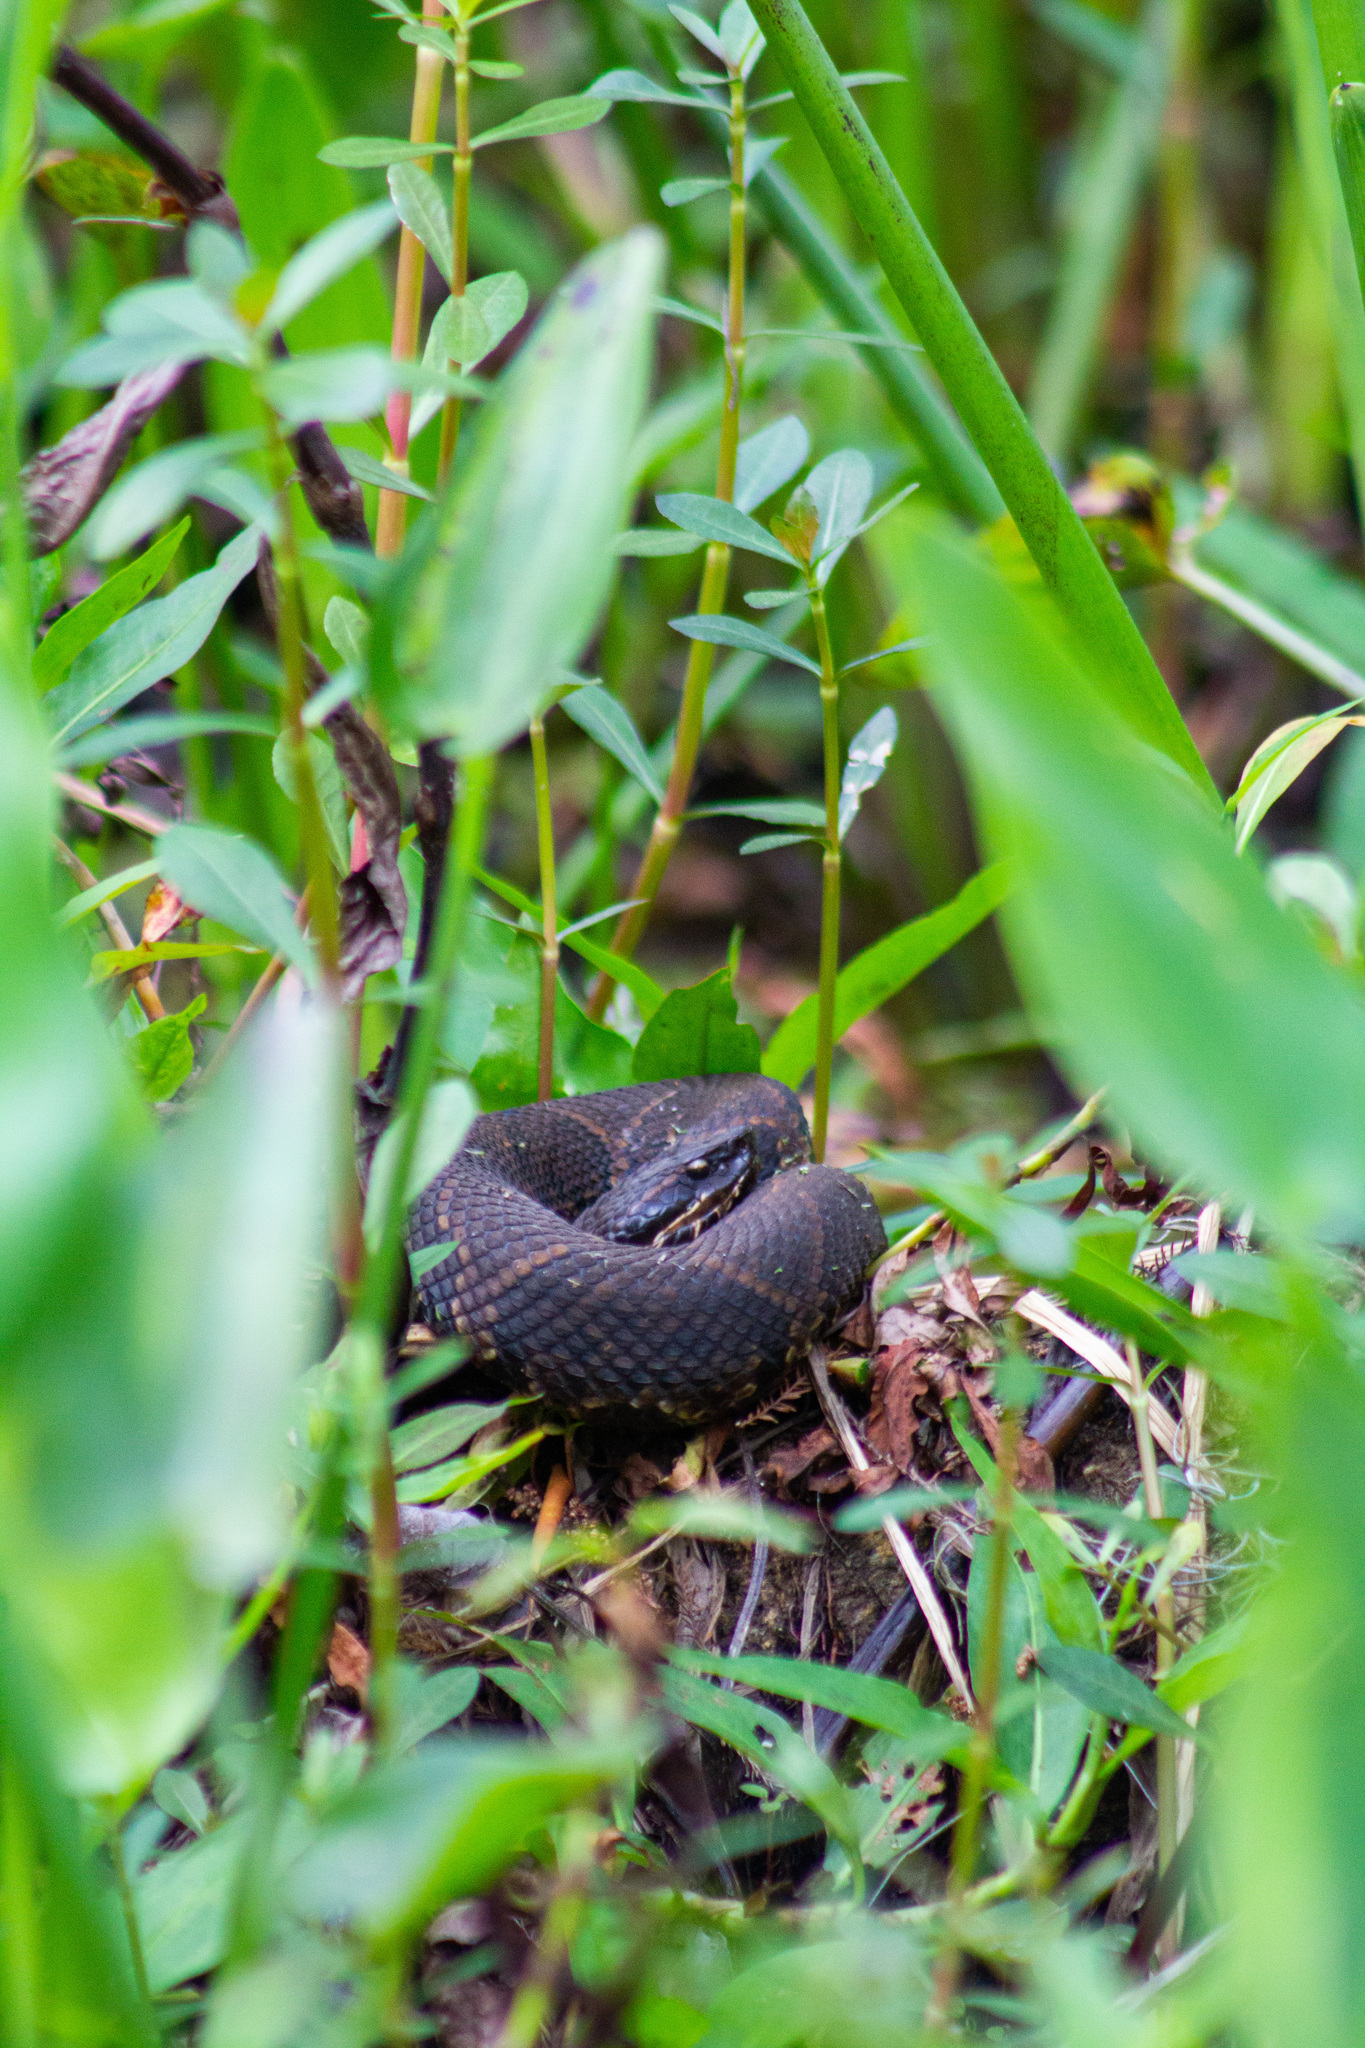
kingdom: Animalia
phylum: Chordata
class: Squamata
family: Viperidae
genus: Agkistrodon
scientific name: Agkistrodon piscivorus
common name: Cottonmouth
